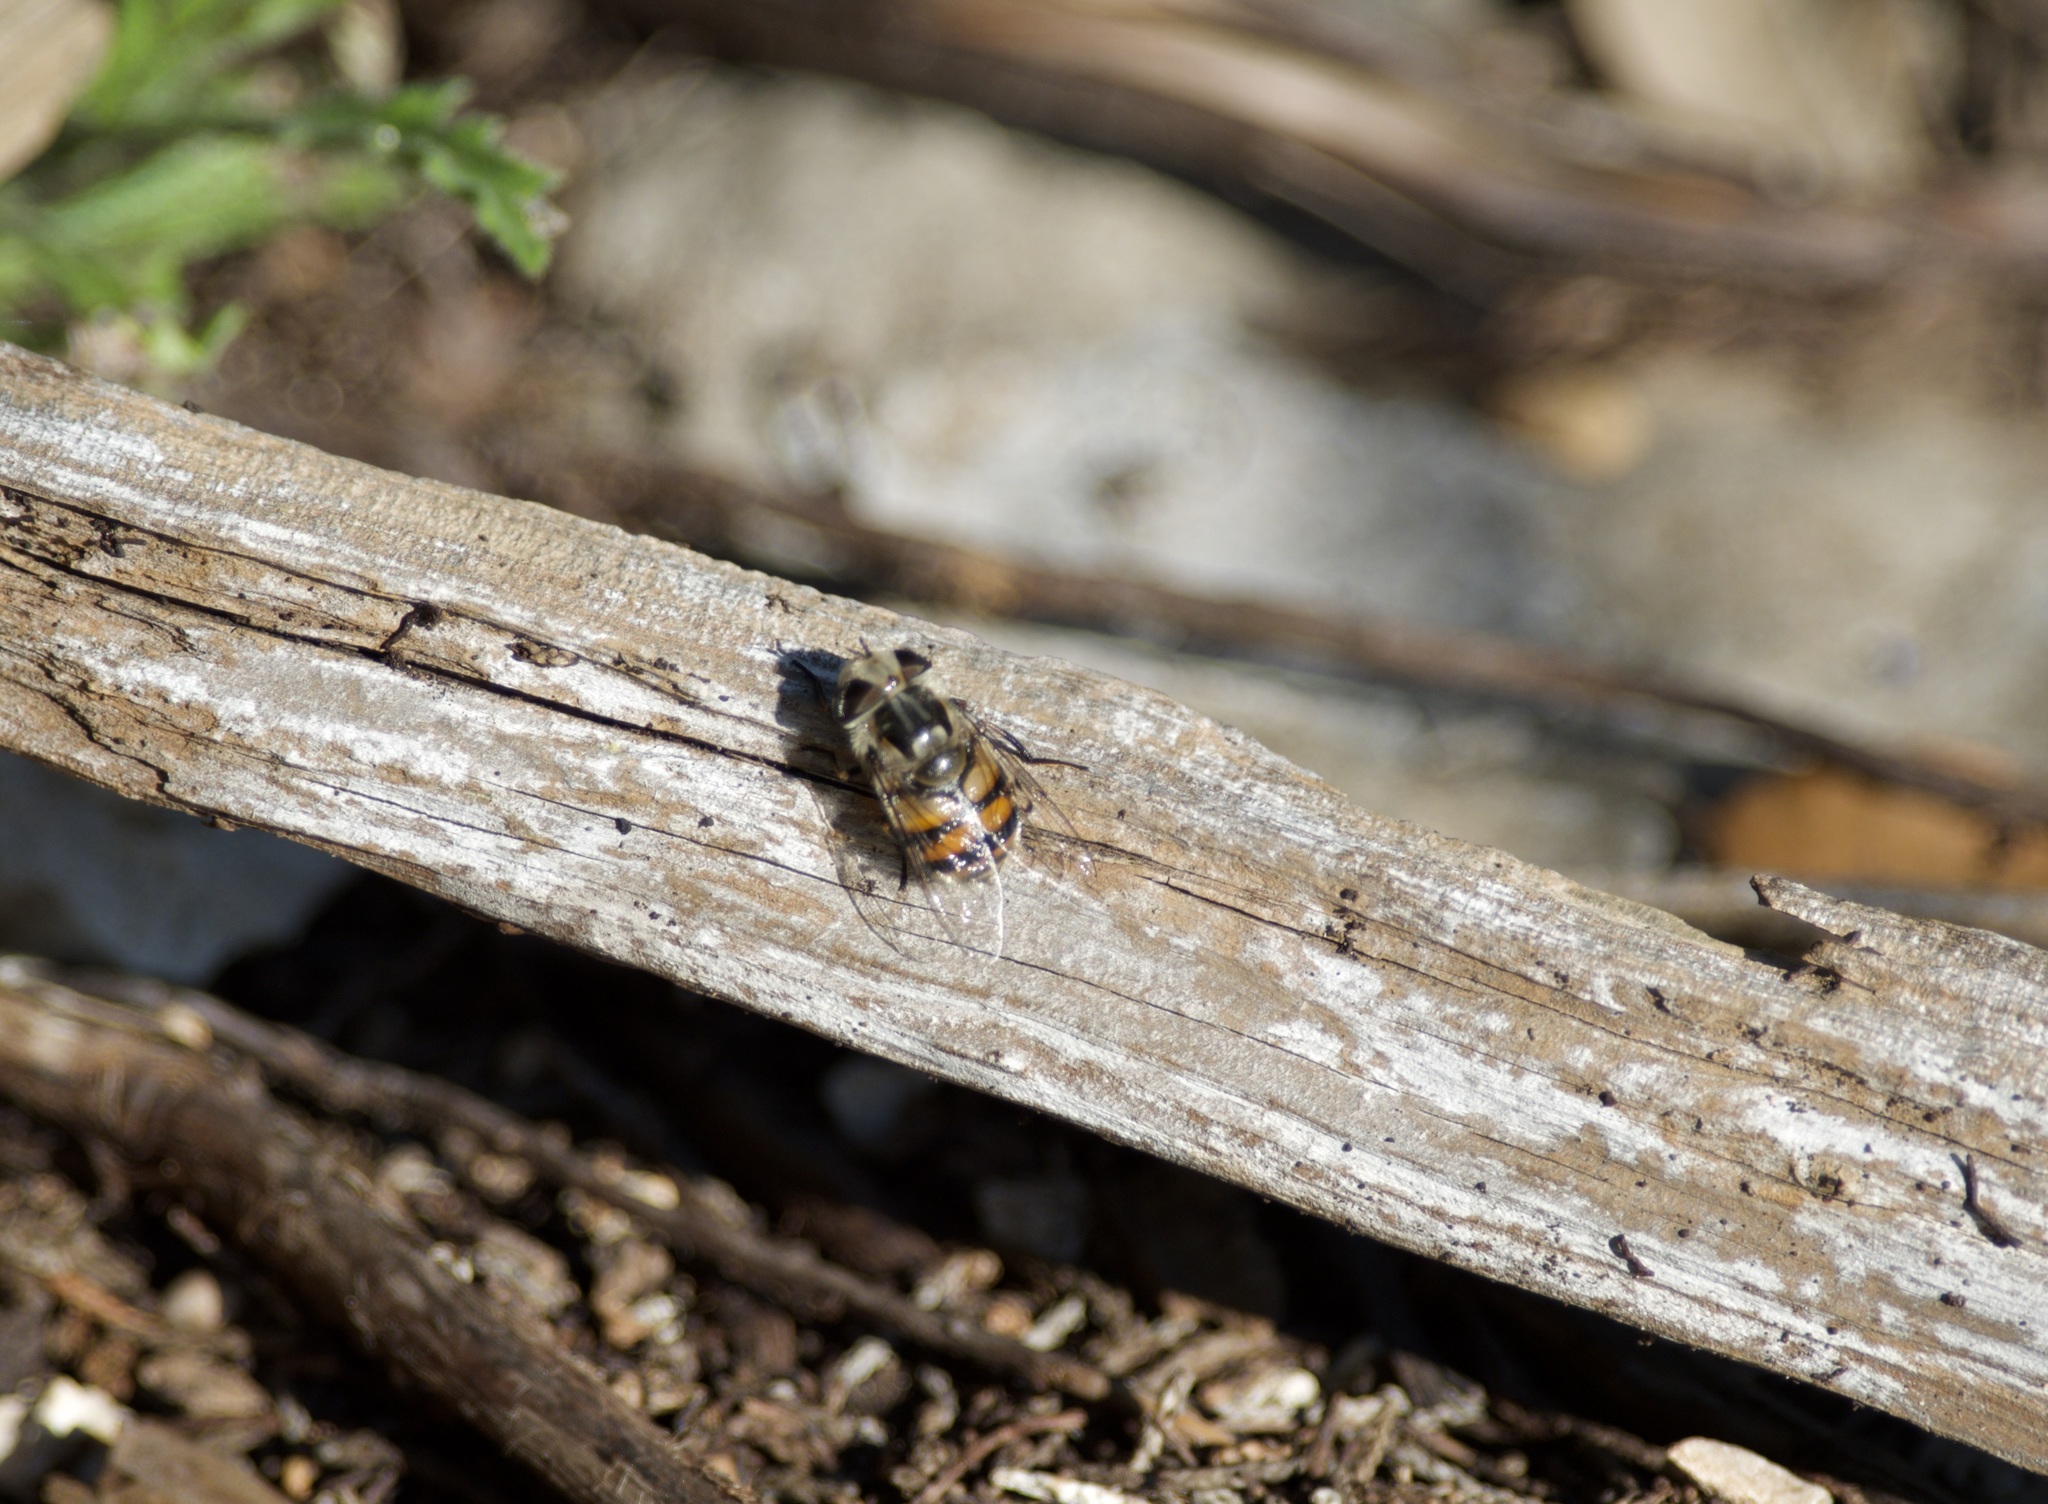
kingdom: Animalia
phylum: Arthropoda
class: Insecta
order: Diptera
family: Syrphidae
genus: Copestylum
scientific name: Copestylum avidum
